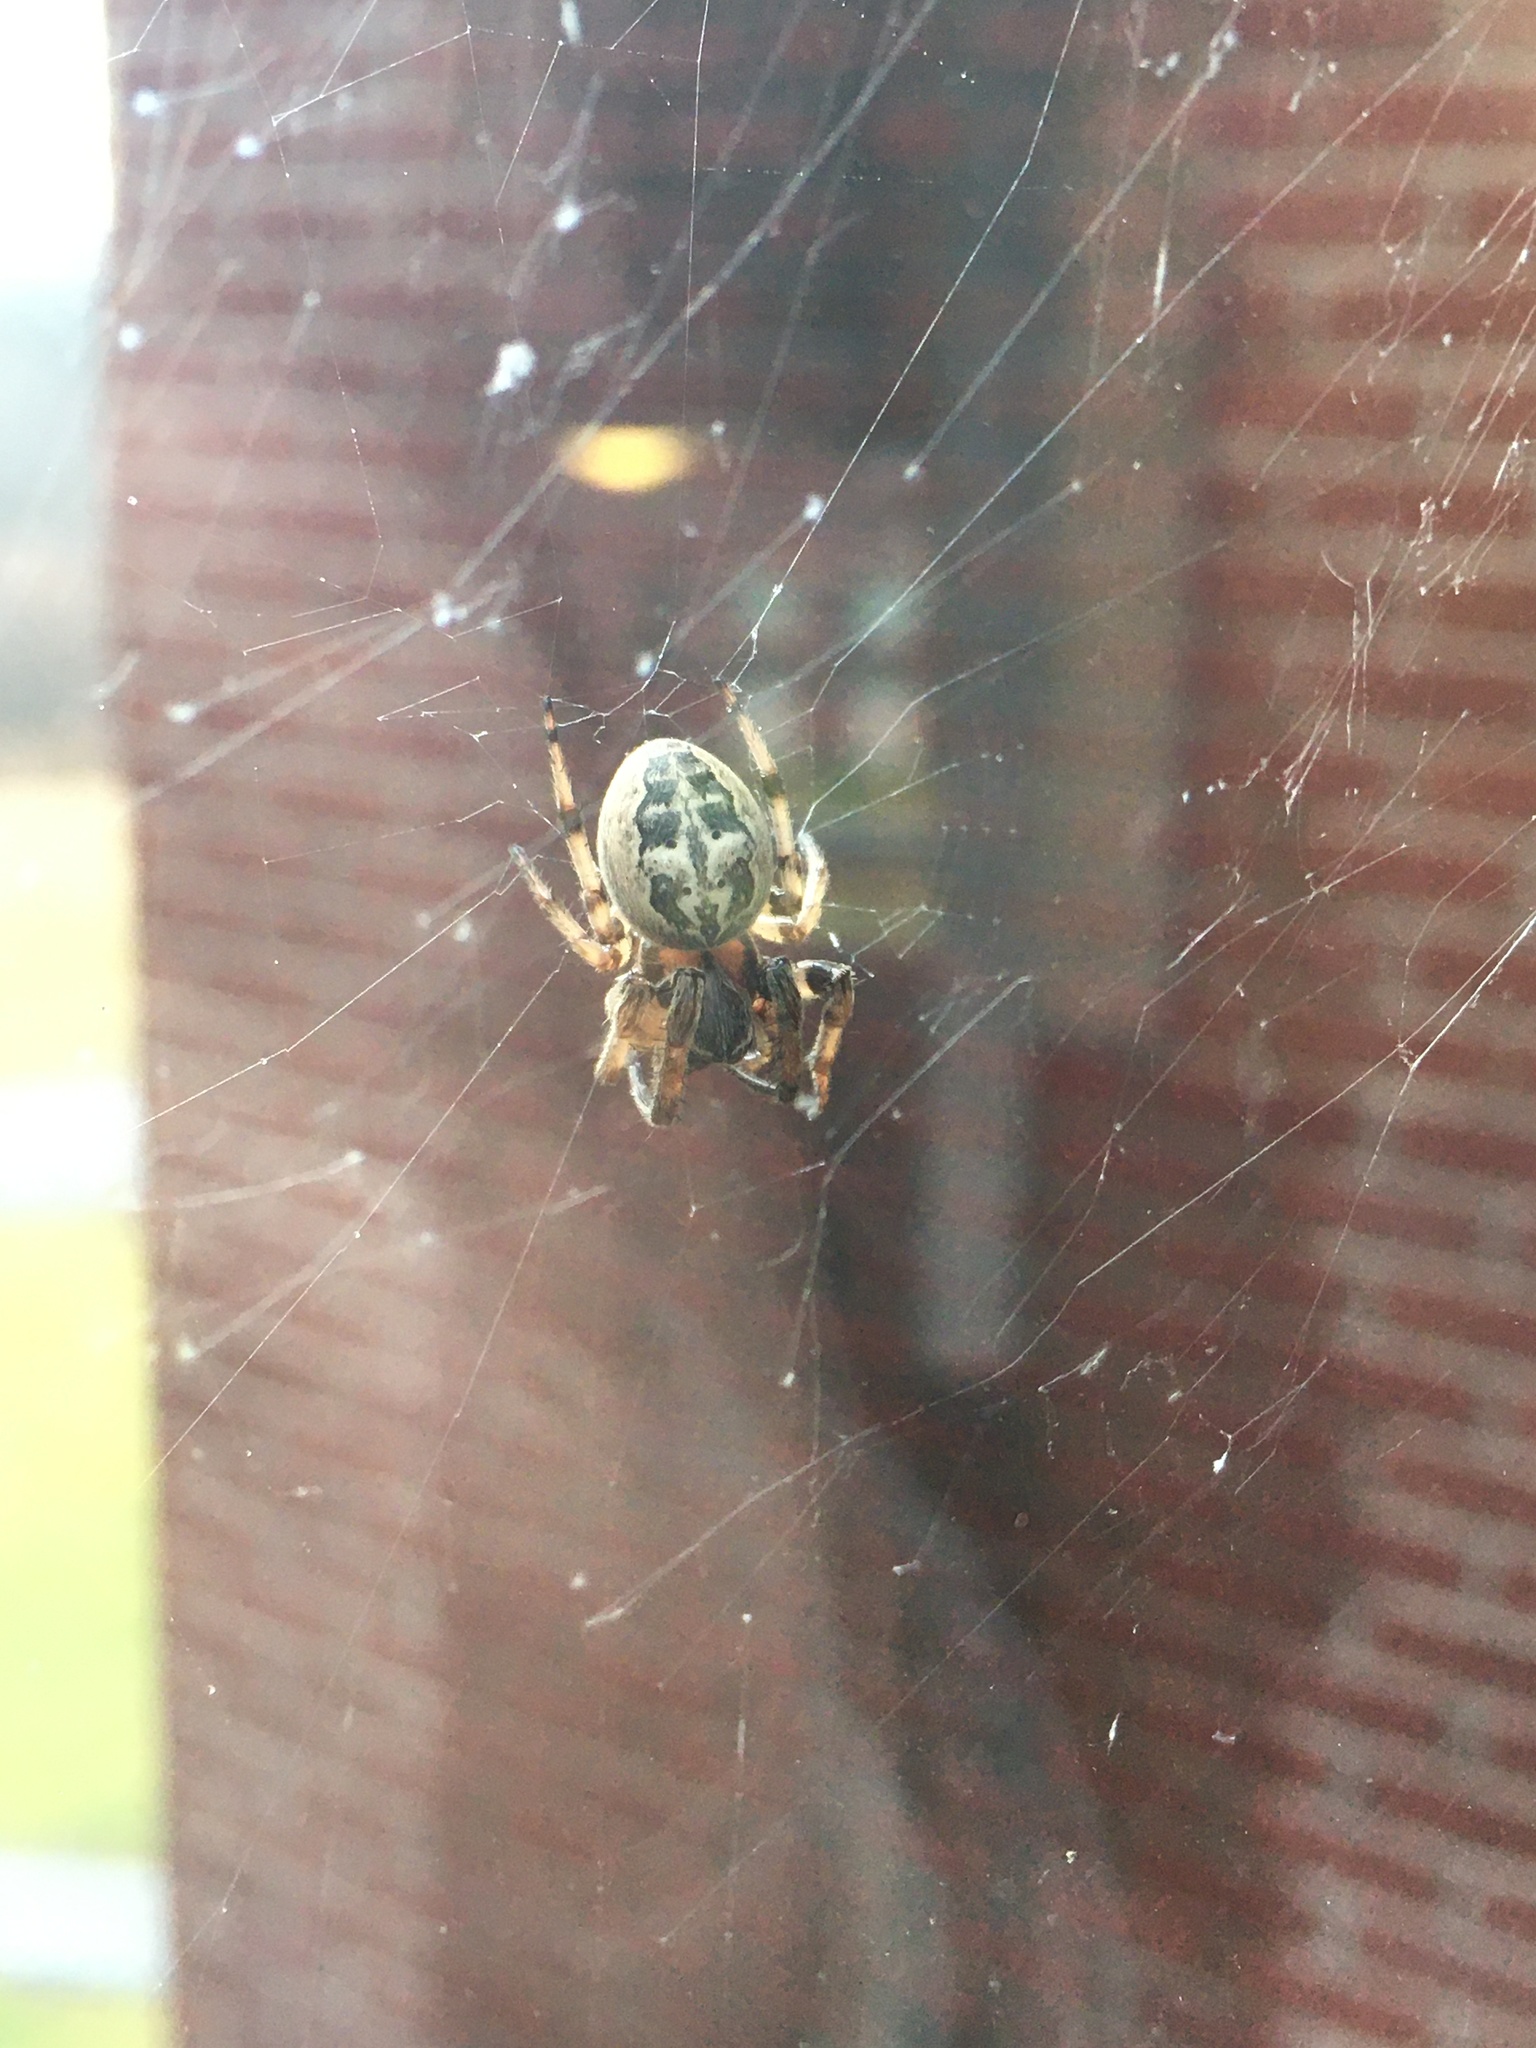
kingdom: Animalia
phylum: Arthropoda
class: Arachnida
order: Araneae
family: Araneidae
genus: Larinioides
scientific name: Larinioides cornutus
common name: Furrow orbweaver
